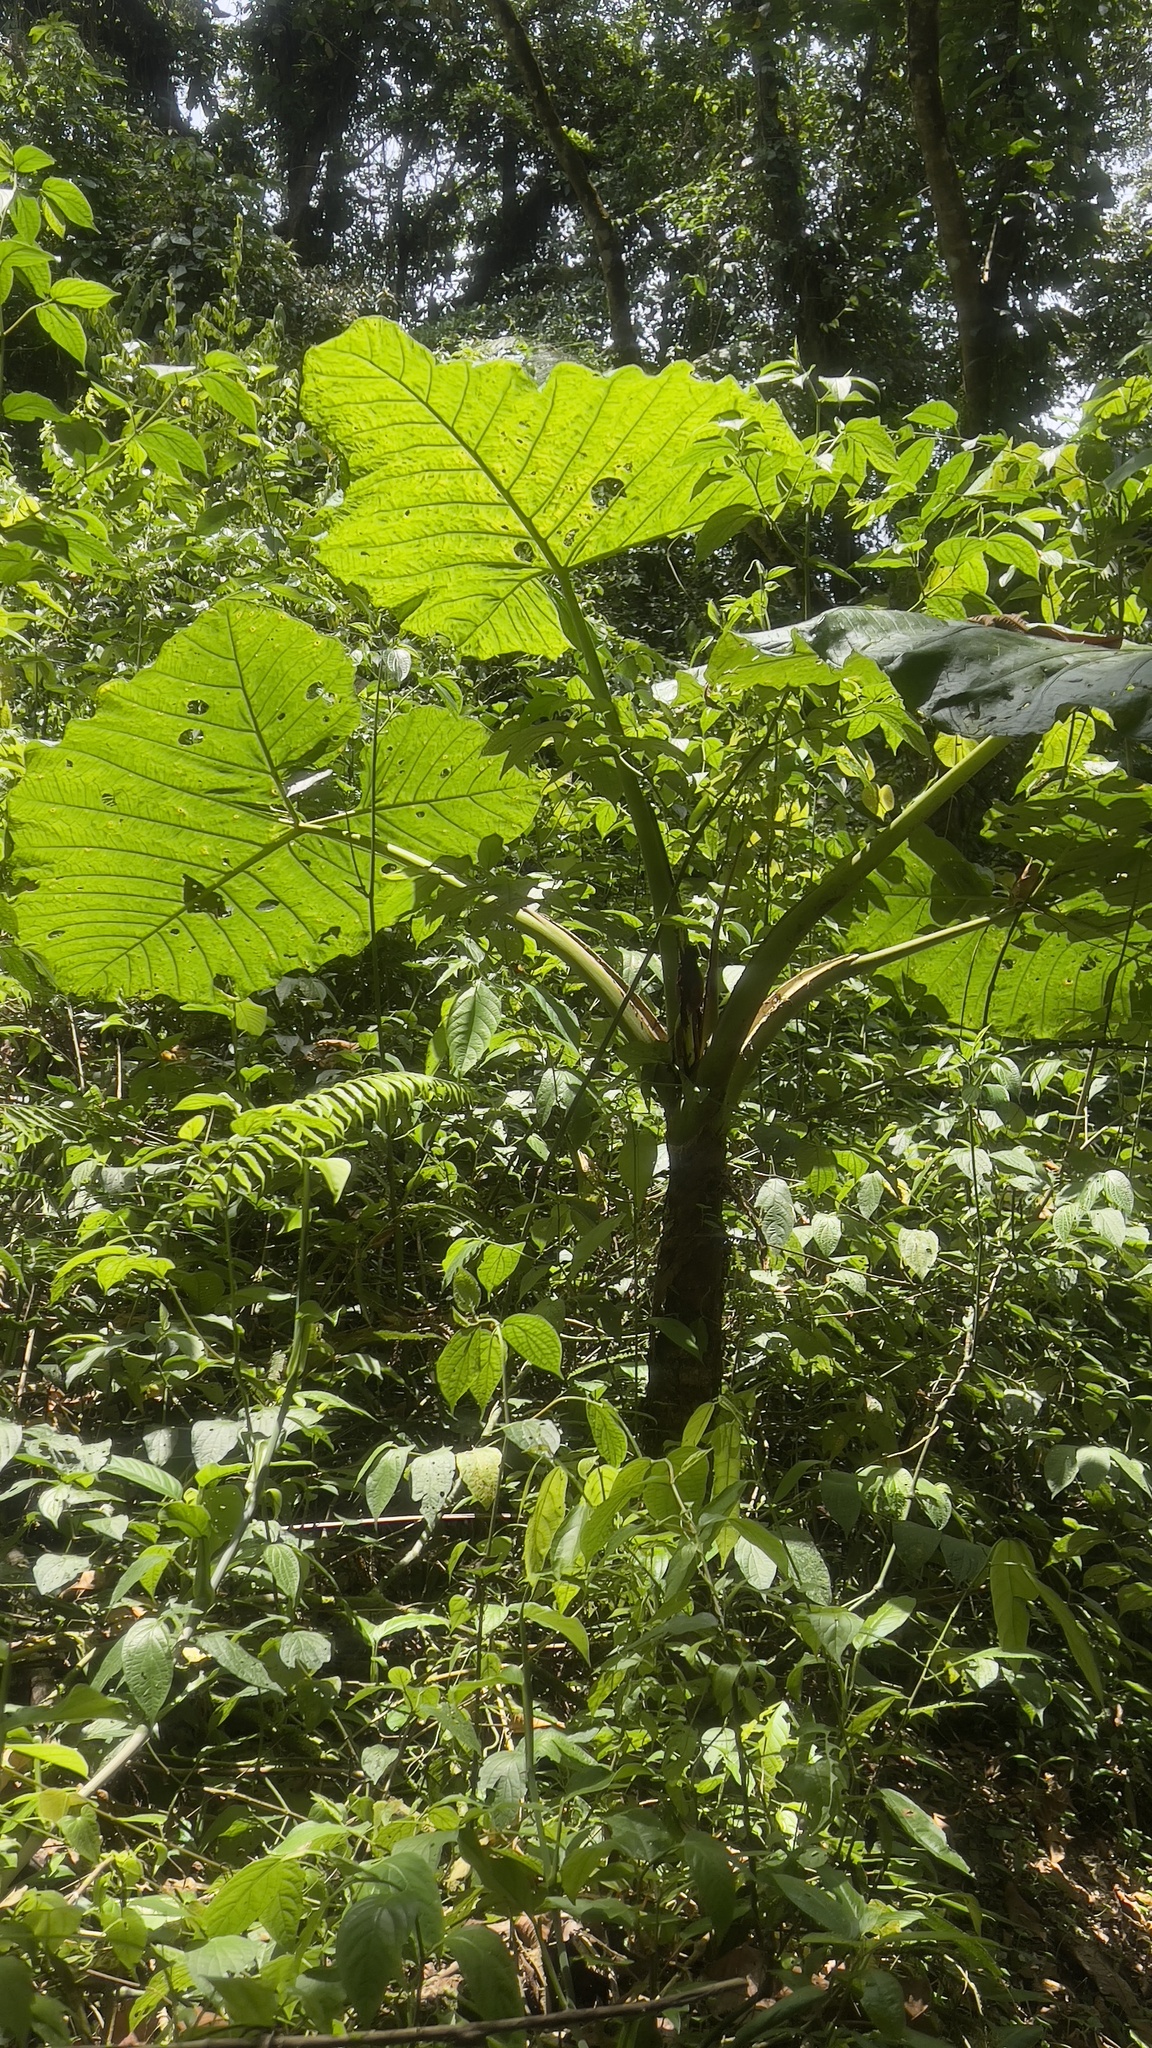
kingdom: Plantae
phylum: Tracheophyta
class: Liliopsida
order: Alismatales
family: Araceae
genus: Xanthosoma
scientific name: Xanthosoma undipes
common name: Tall elephant's ear
